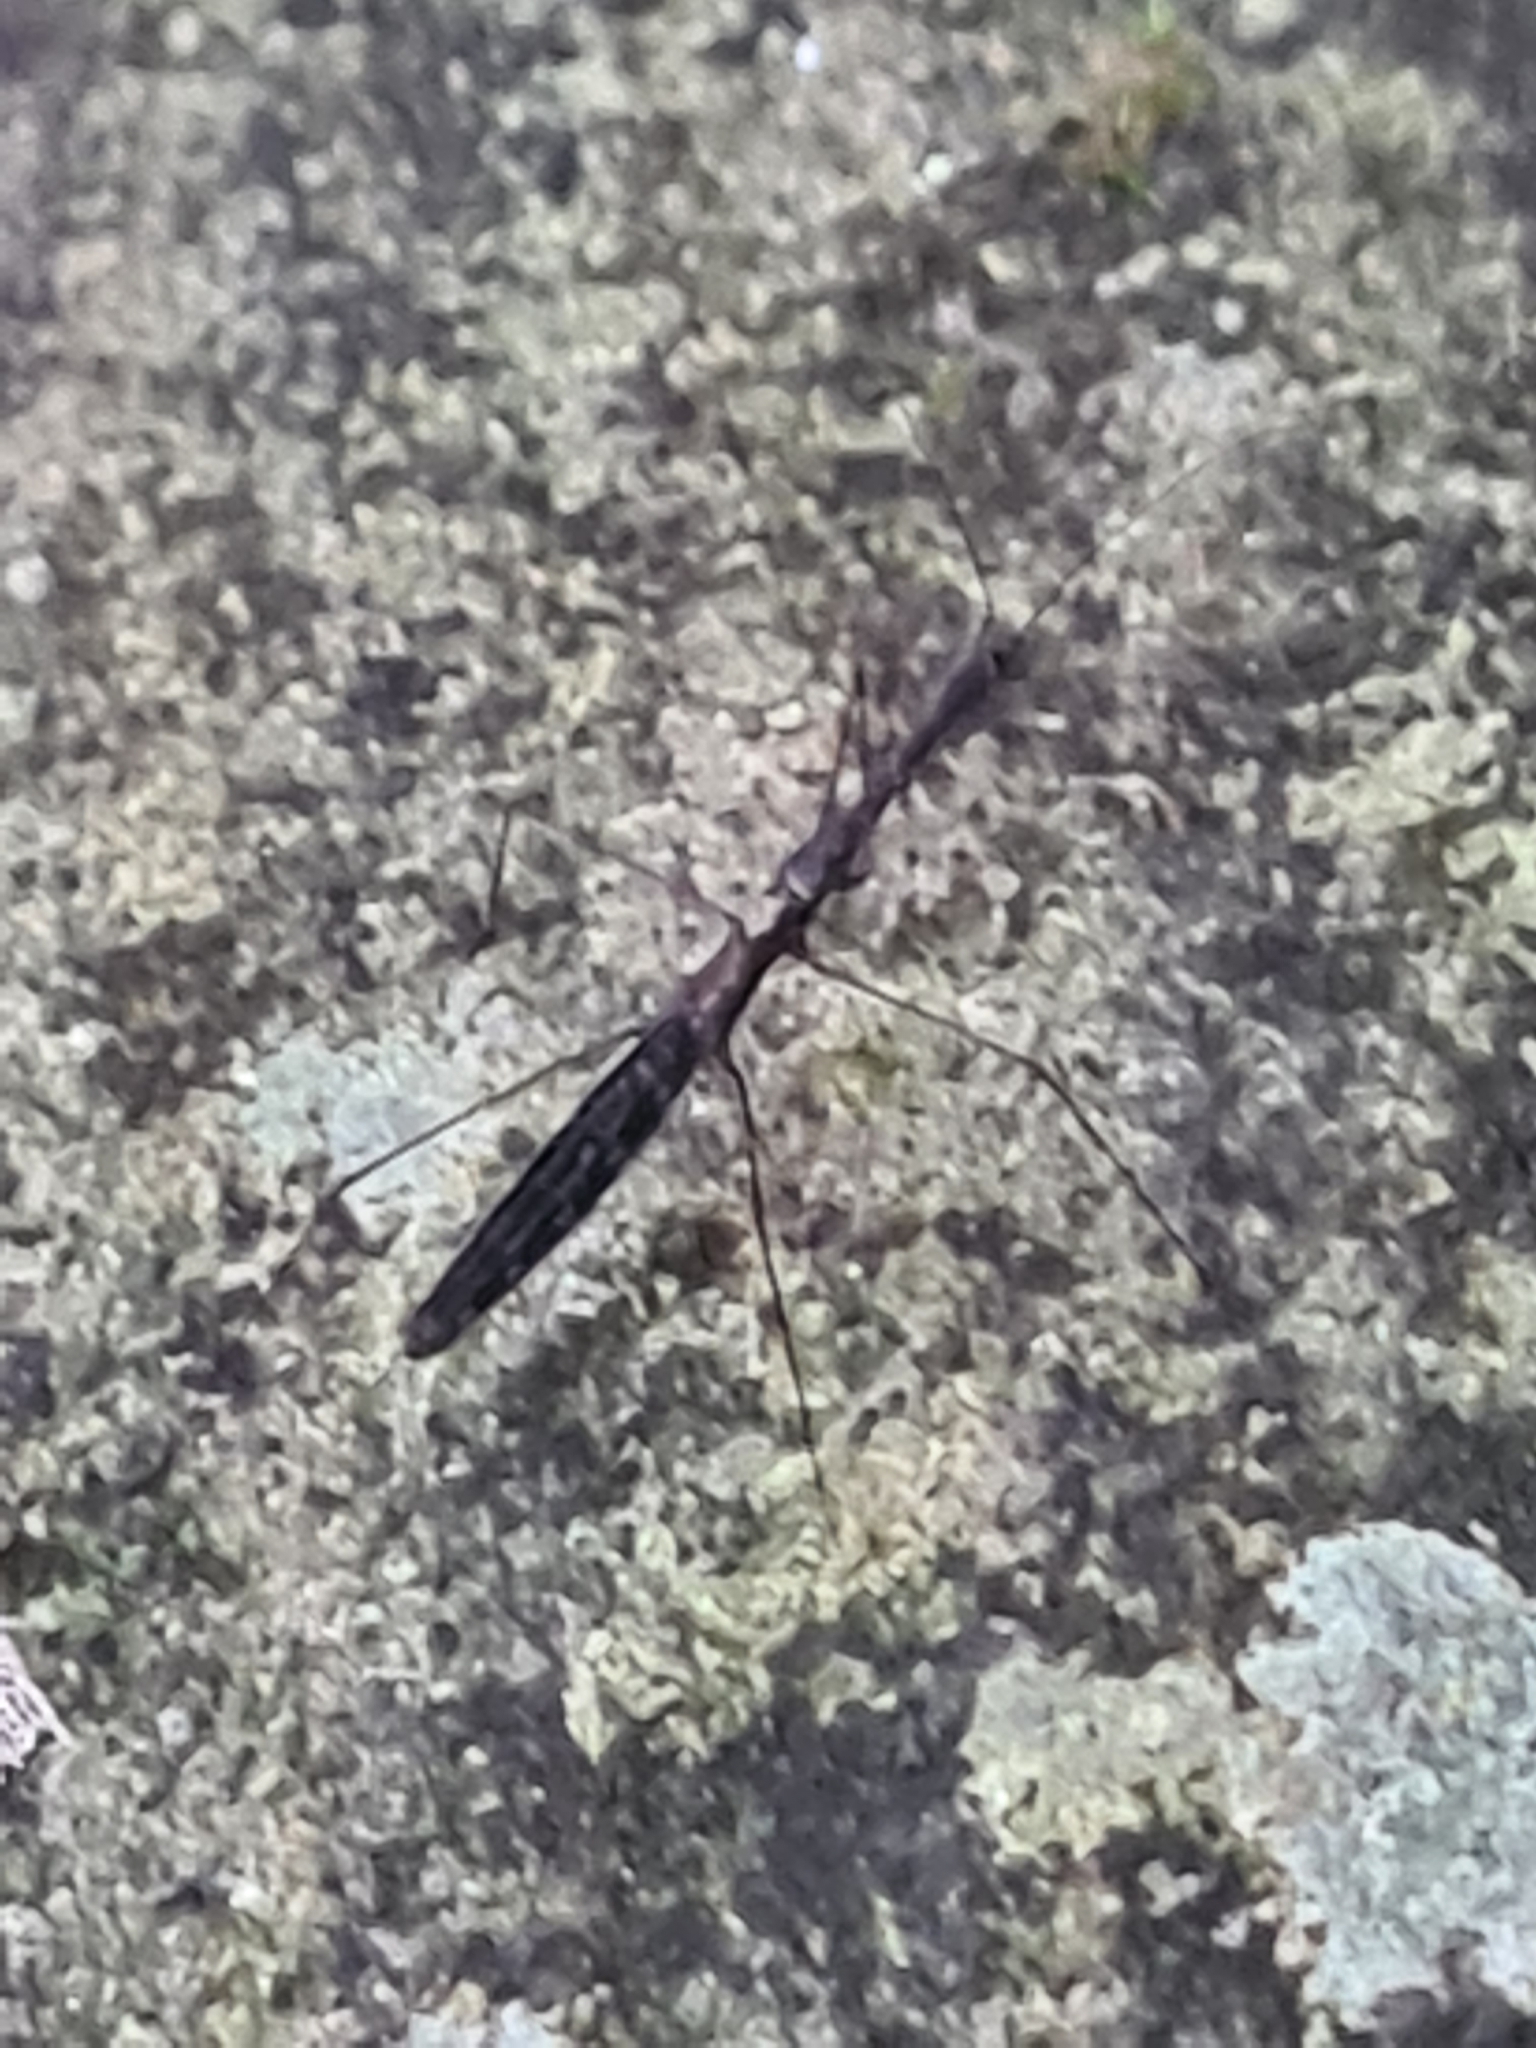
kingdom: Animalia
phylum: Arthropoda
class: Insecta
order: Hemiptera
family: Hydrometridae
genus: Hydrometra
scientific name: Hydrometra stagnorum
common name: Water measurer
